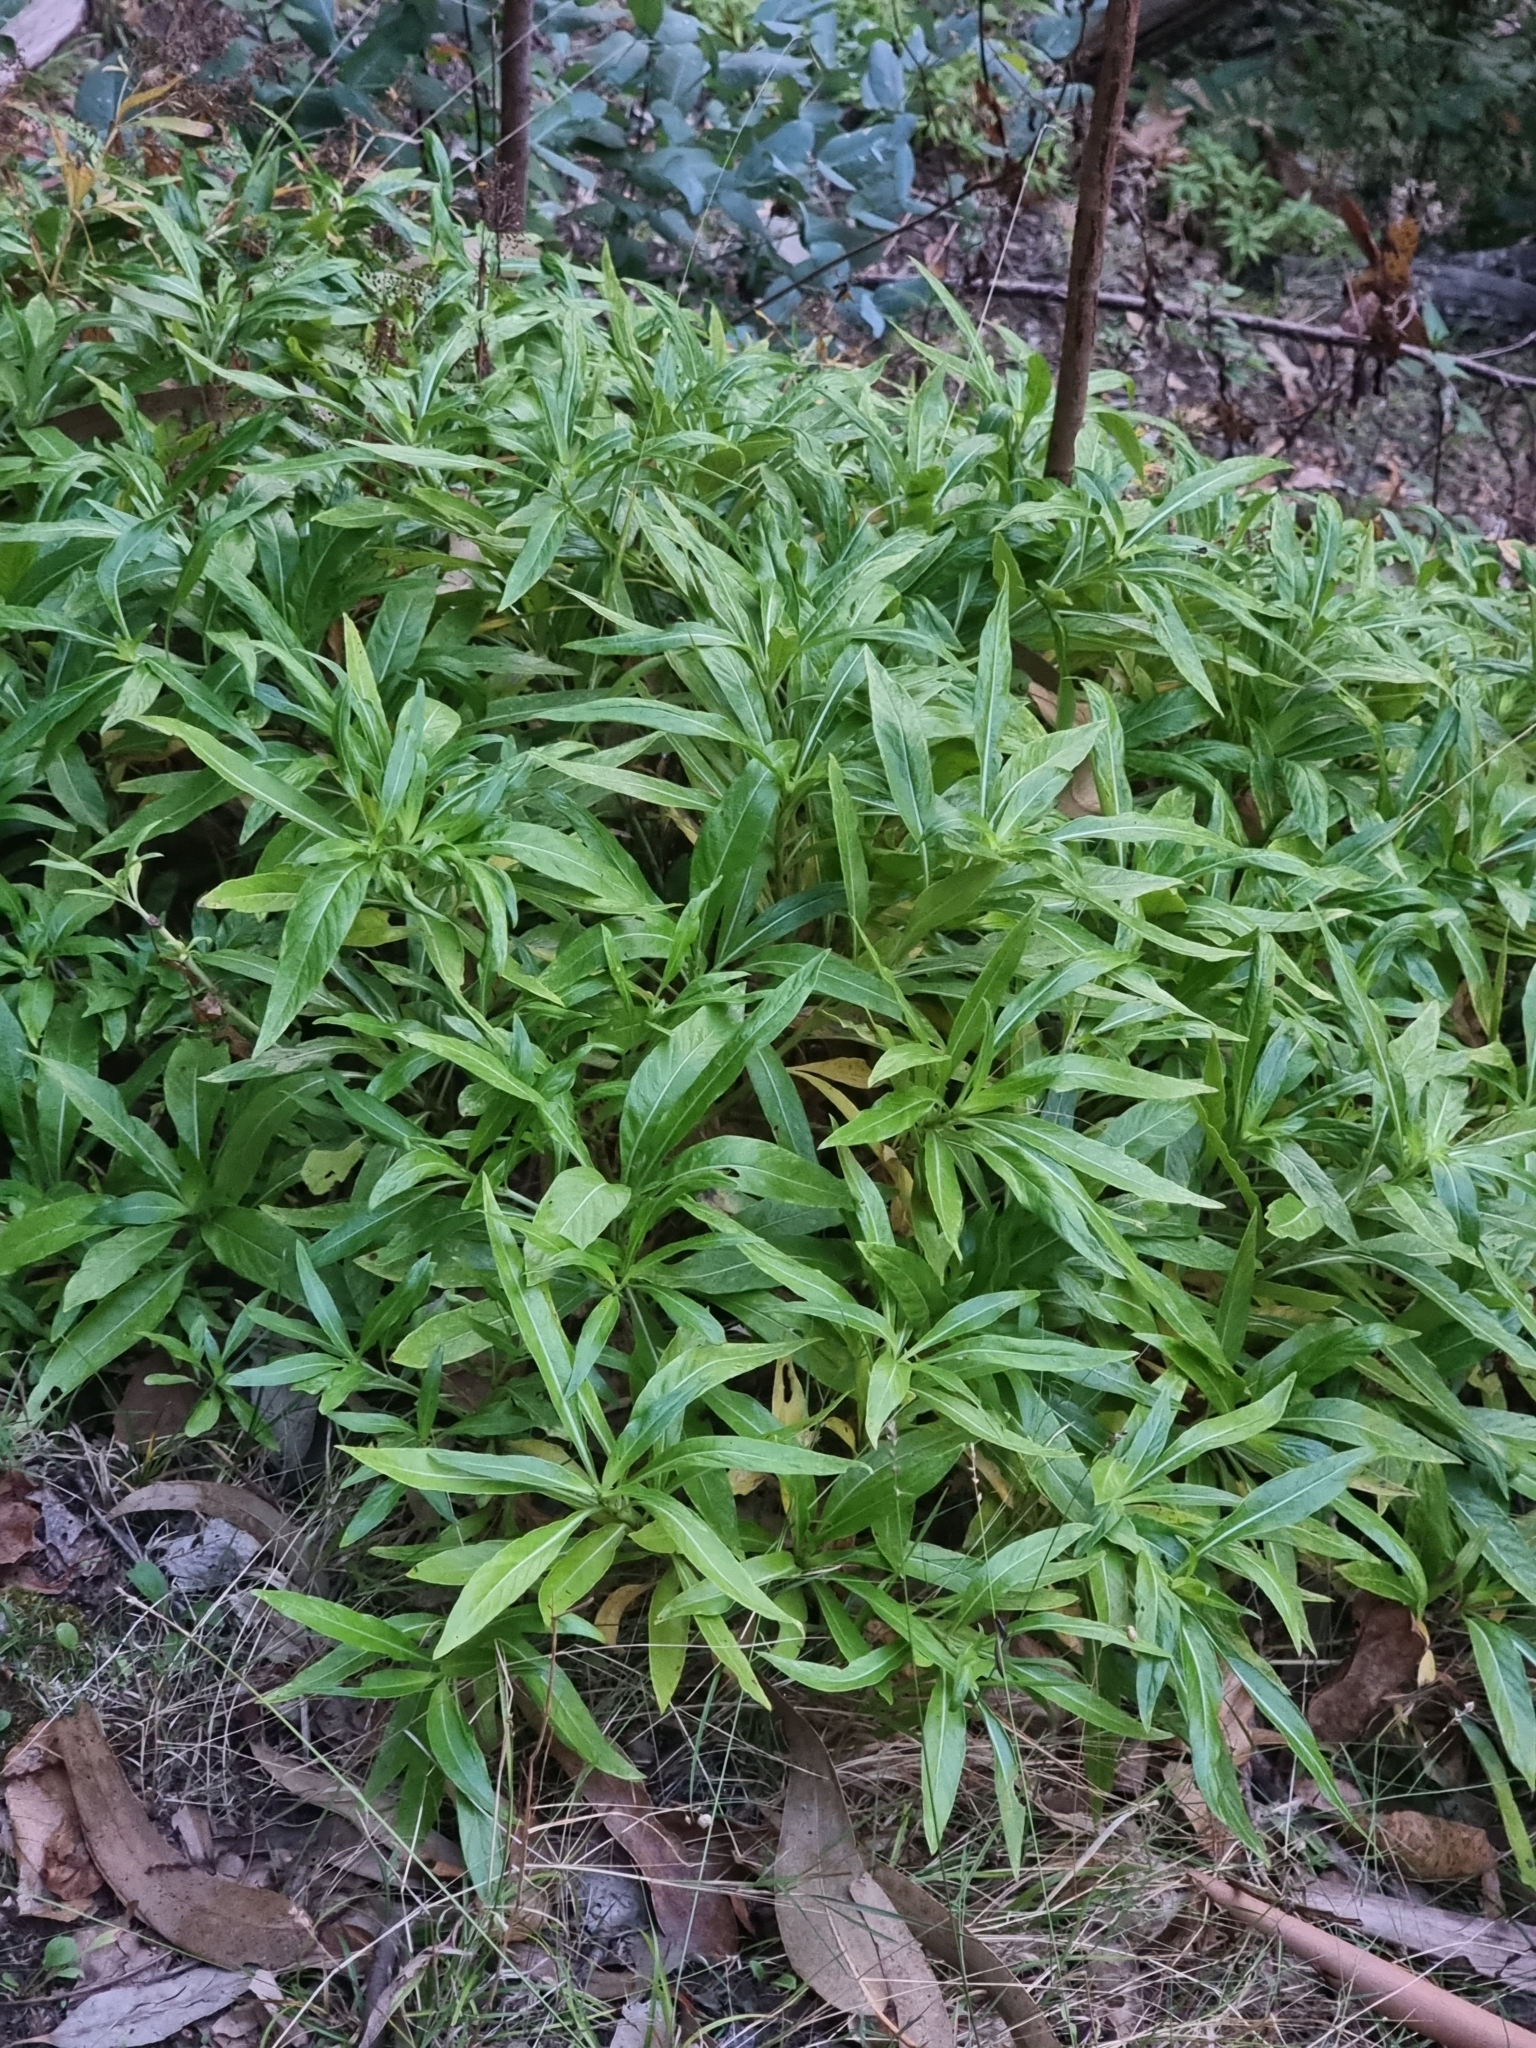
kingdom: Plantae
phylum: Tracheophyta
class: Magnoliopsida
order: Gentianales
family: Rubiaceae
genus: Phyllis
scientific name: Phyllis nobla
